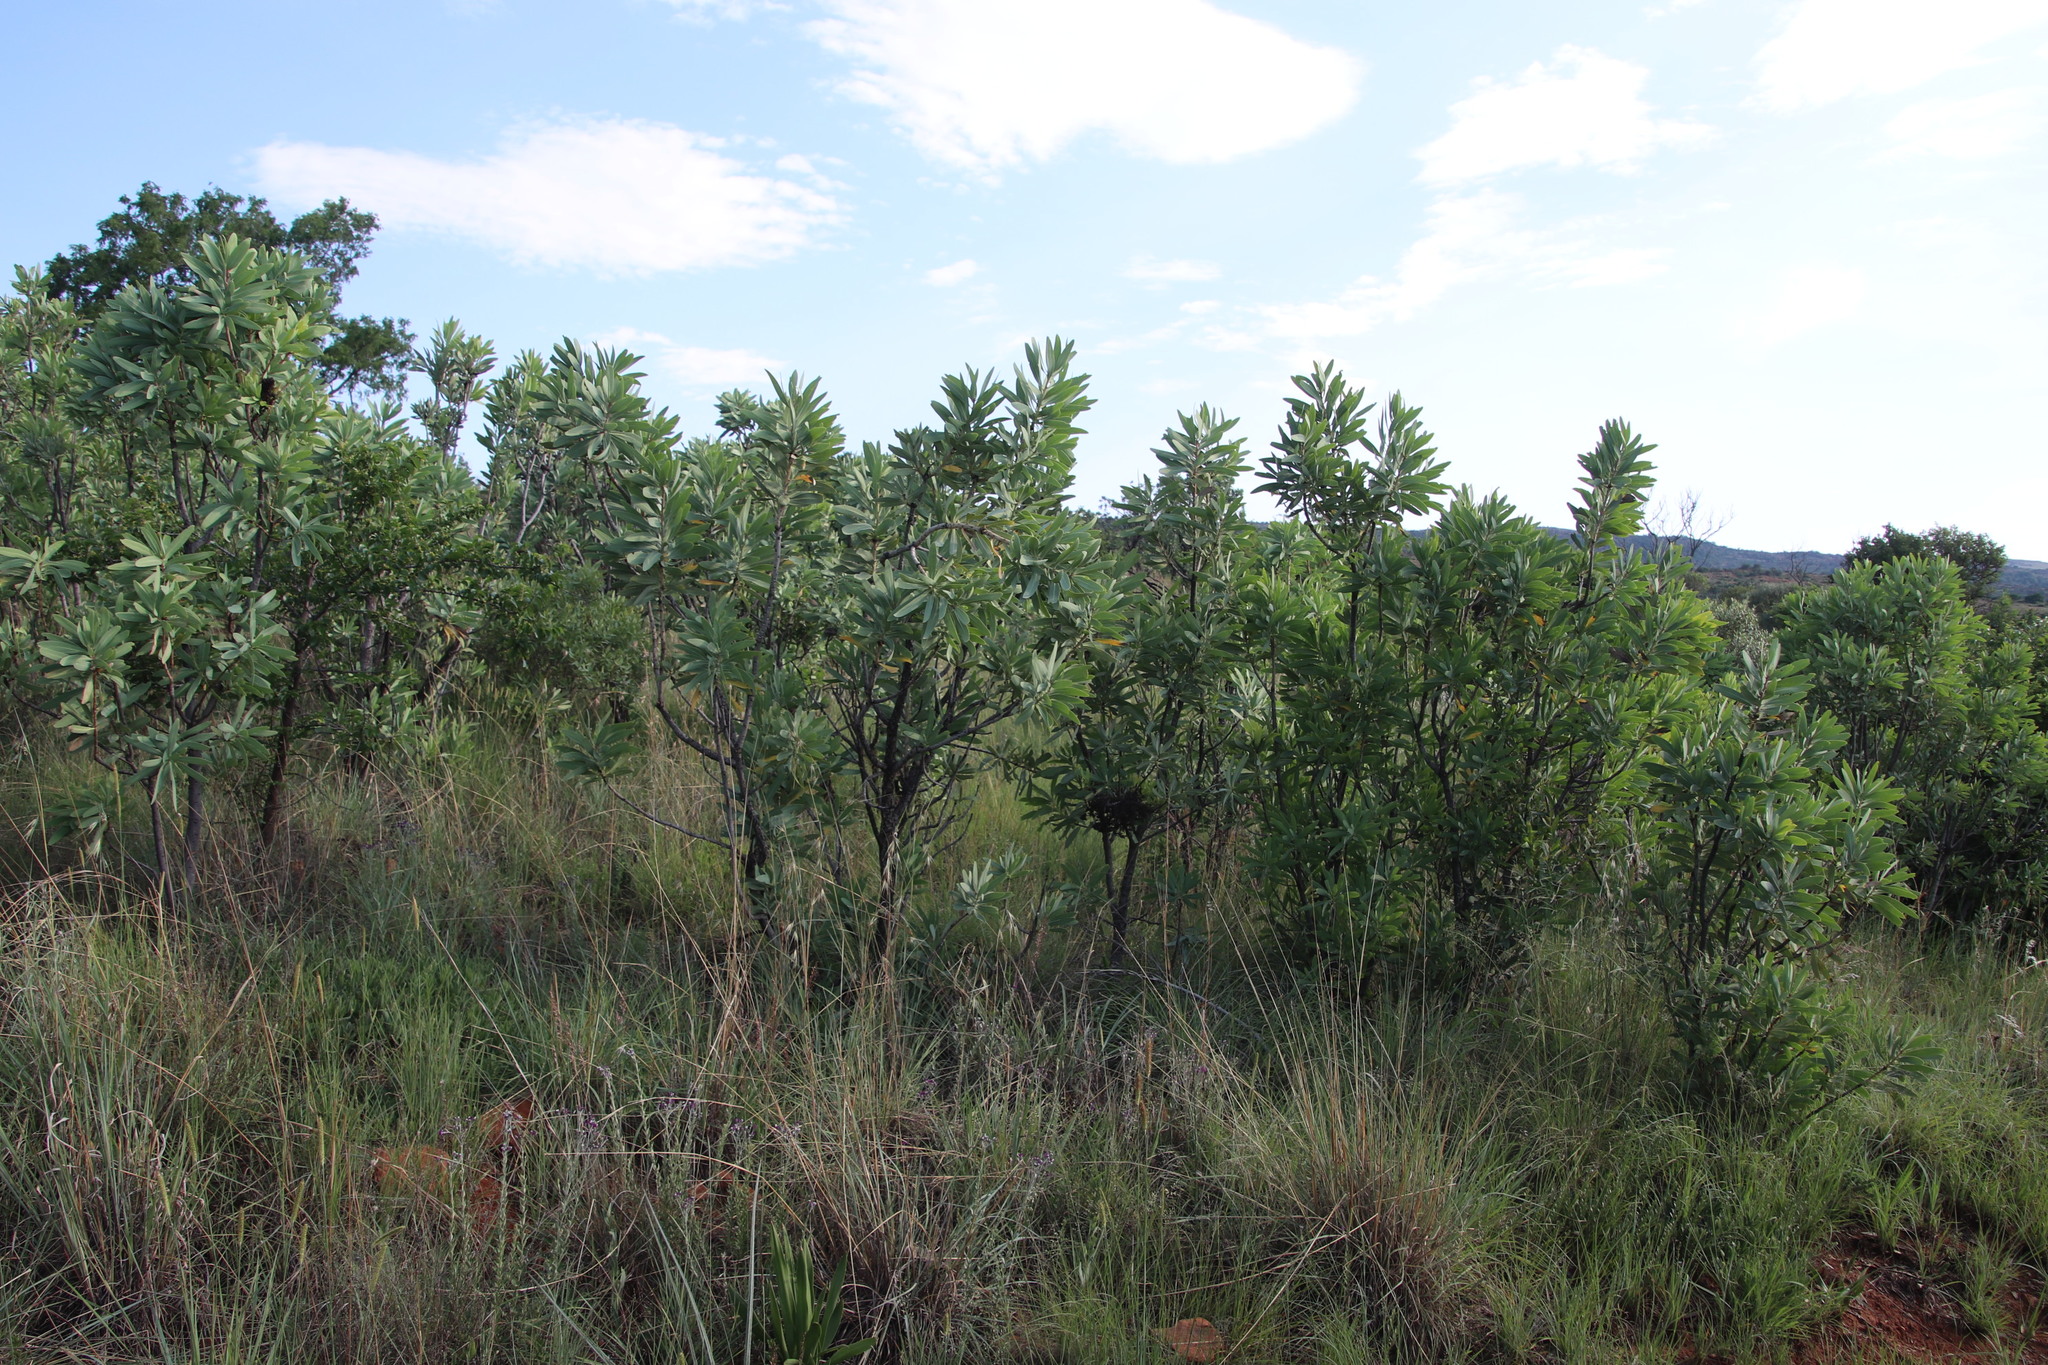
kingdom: Plantae
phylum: Tracheophyta
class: Magnoliopsida
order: Proteales
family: Proteaceae
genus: Protea
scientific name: Protea caffra
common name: Common sugarbush
